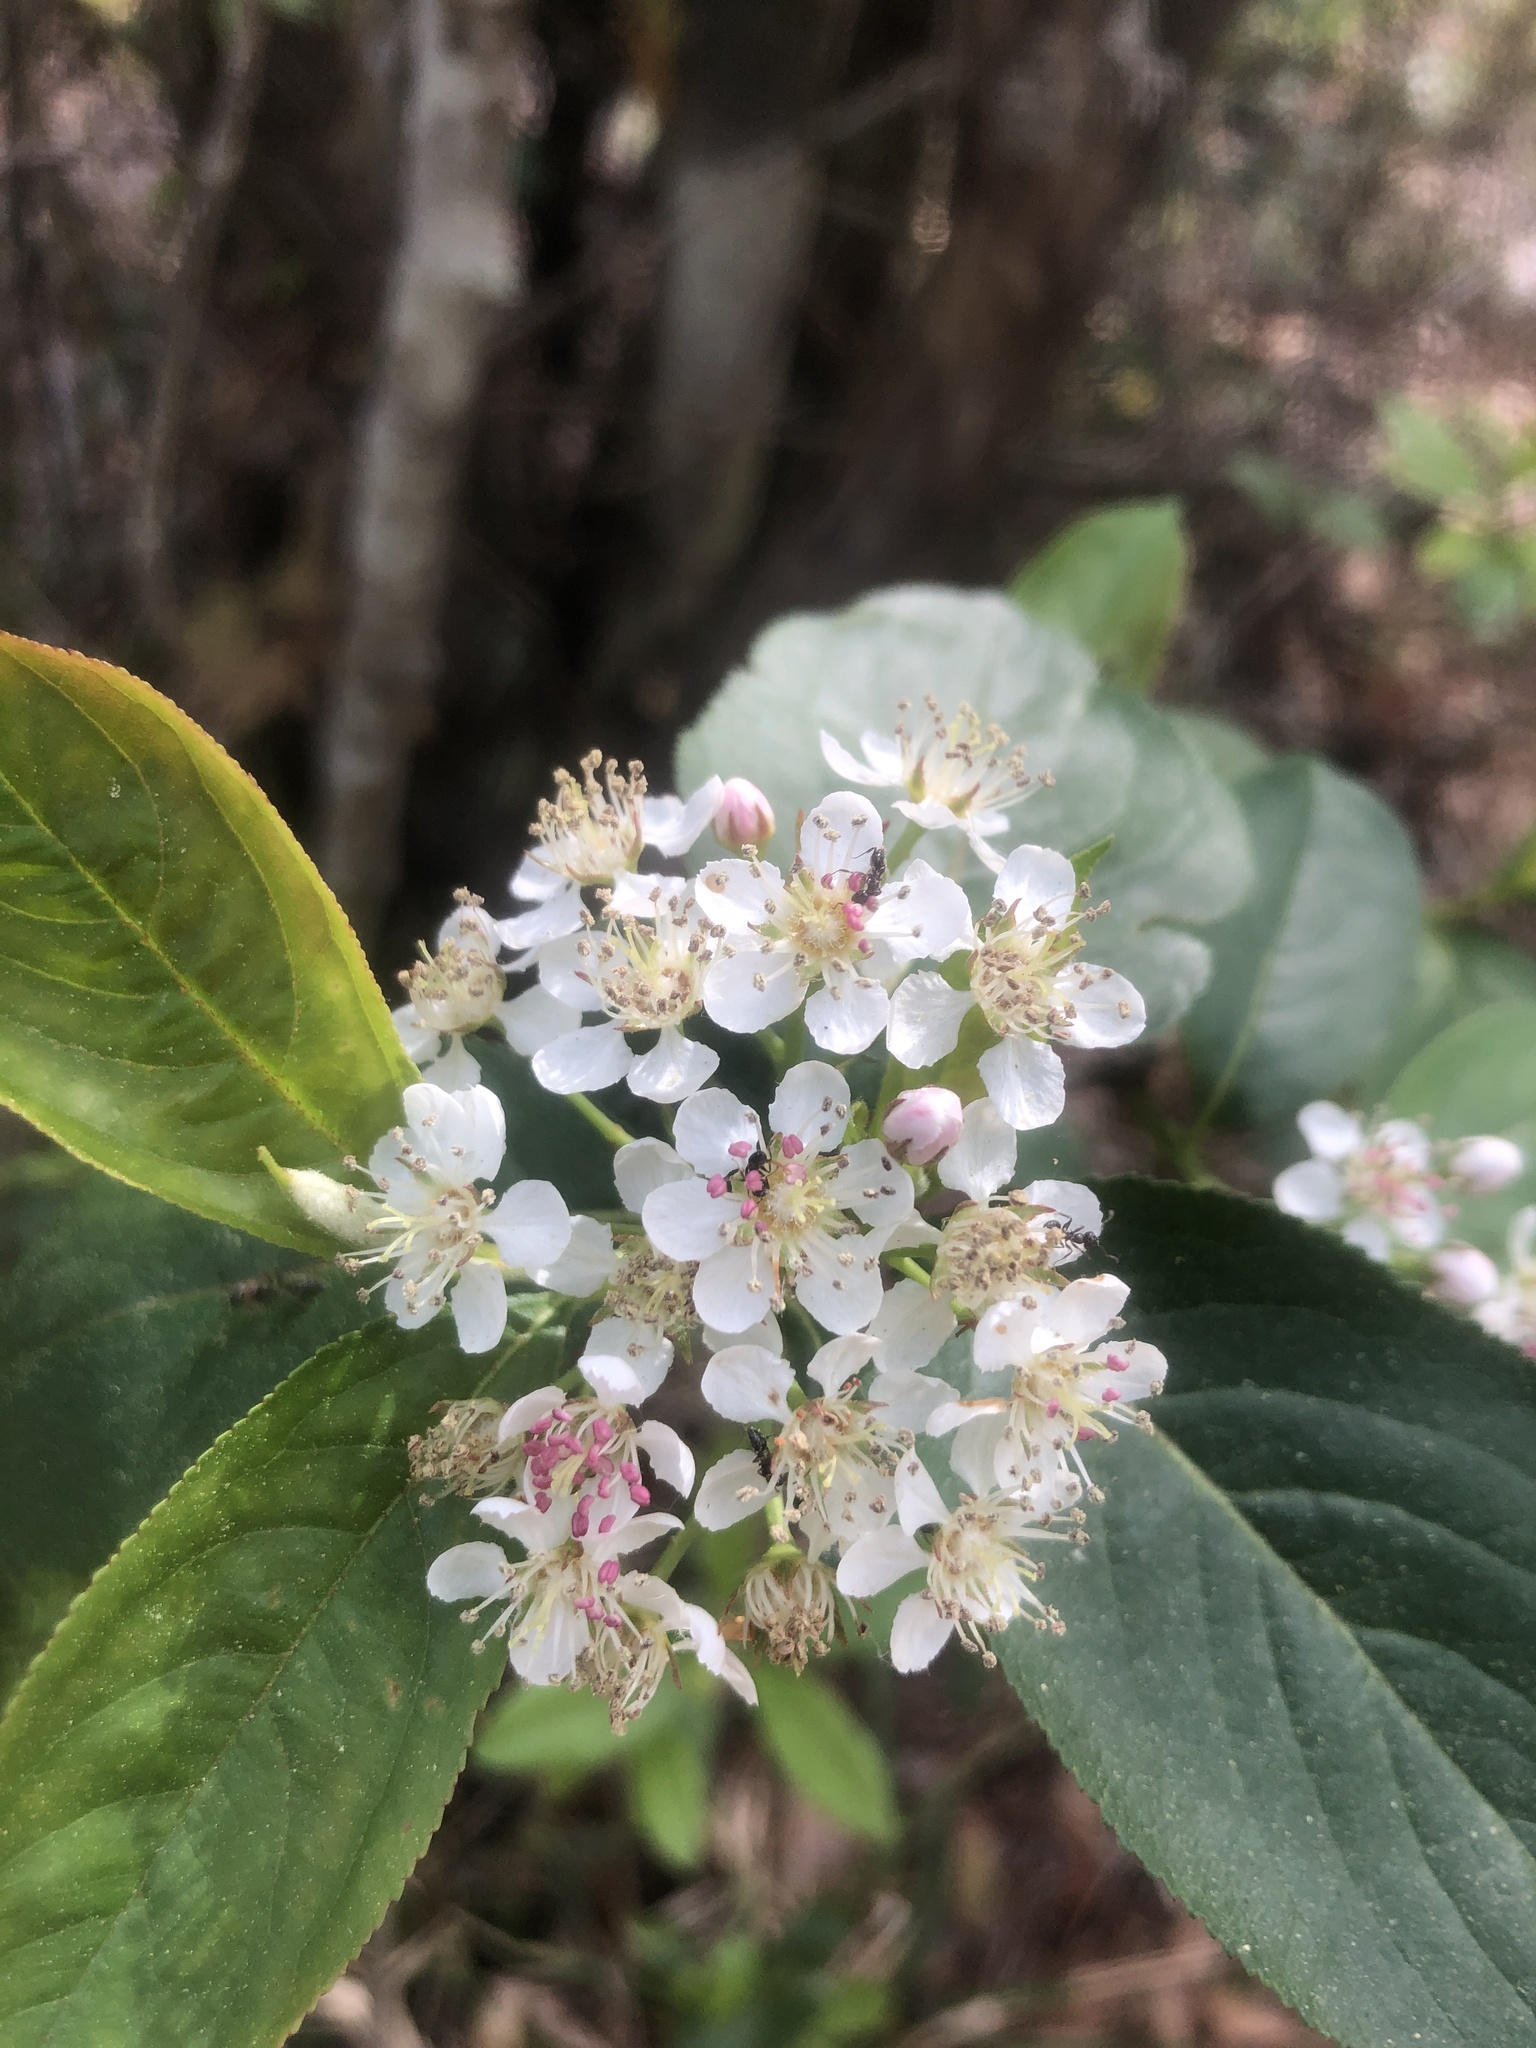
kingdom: Plantae
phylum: Tracheophyta
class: Magnoliopsida
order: Rosales
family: Rosaceae
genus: Aronia
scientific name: Aronia arbutifolia
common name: Red chokeberry
